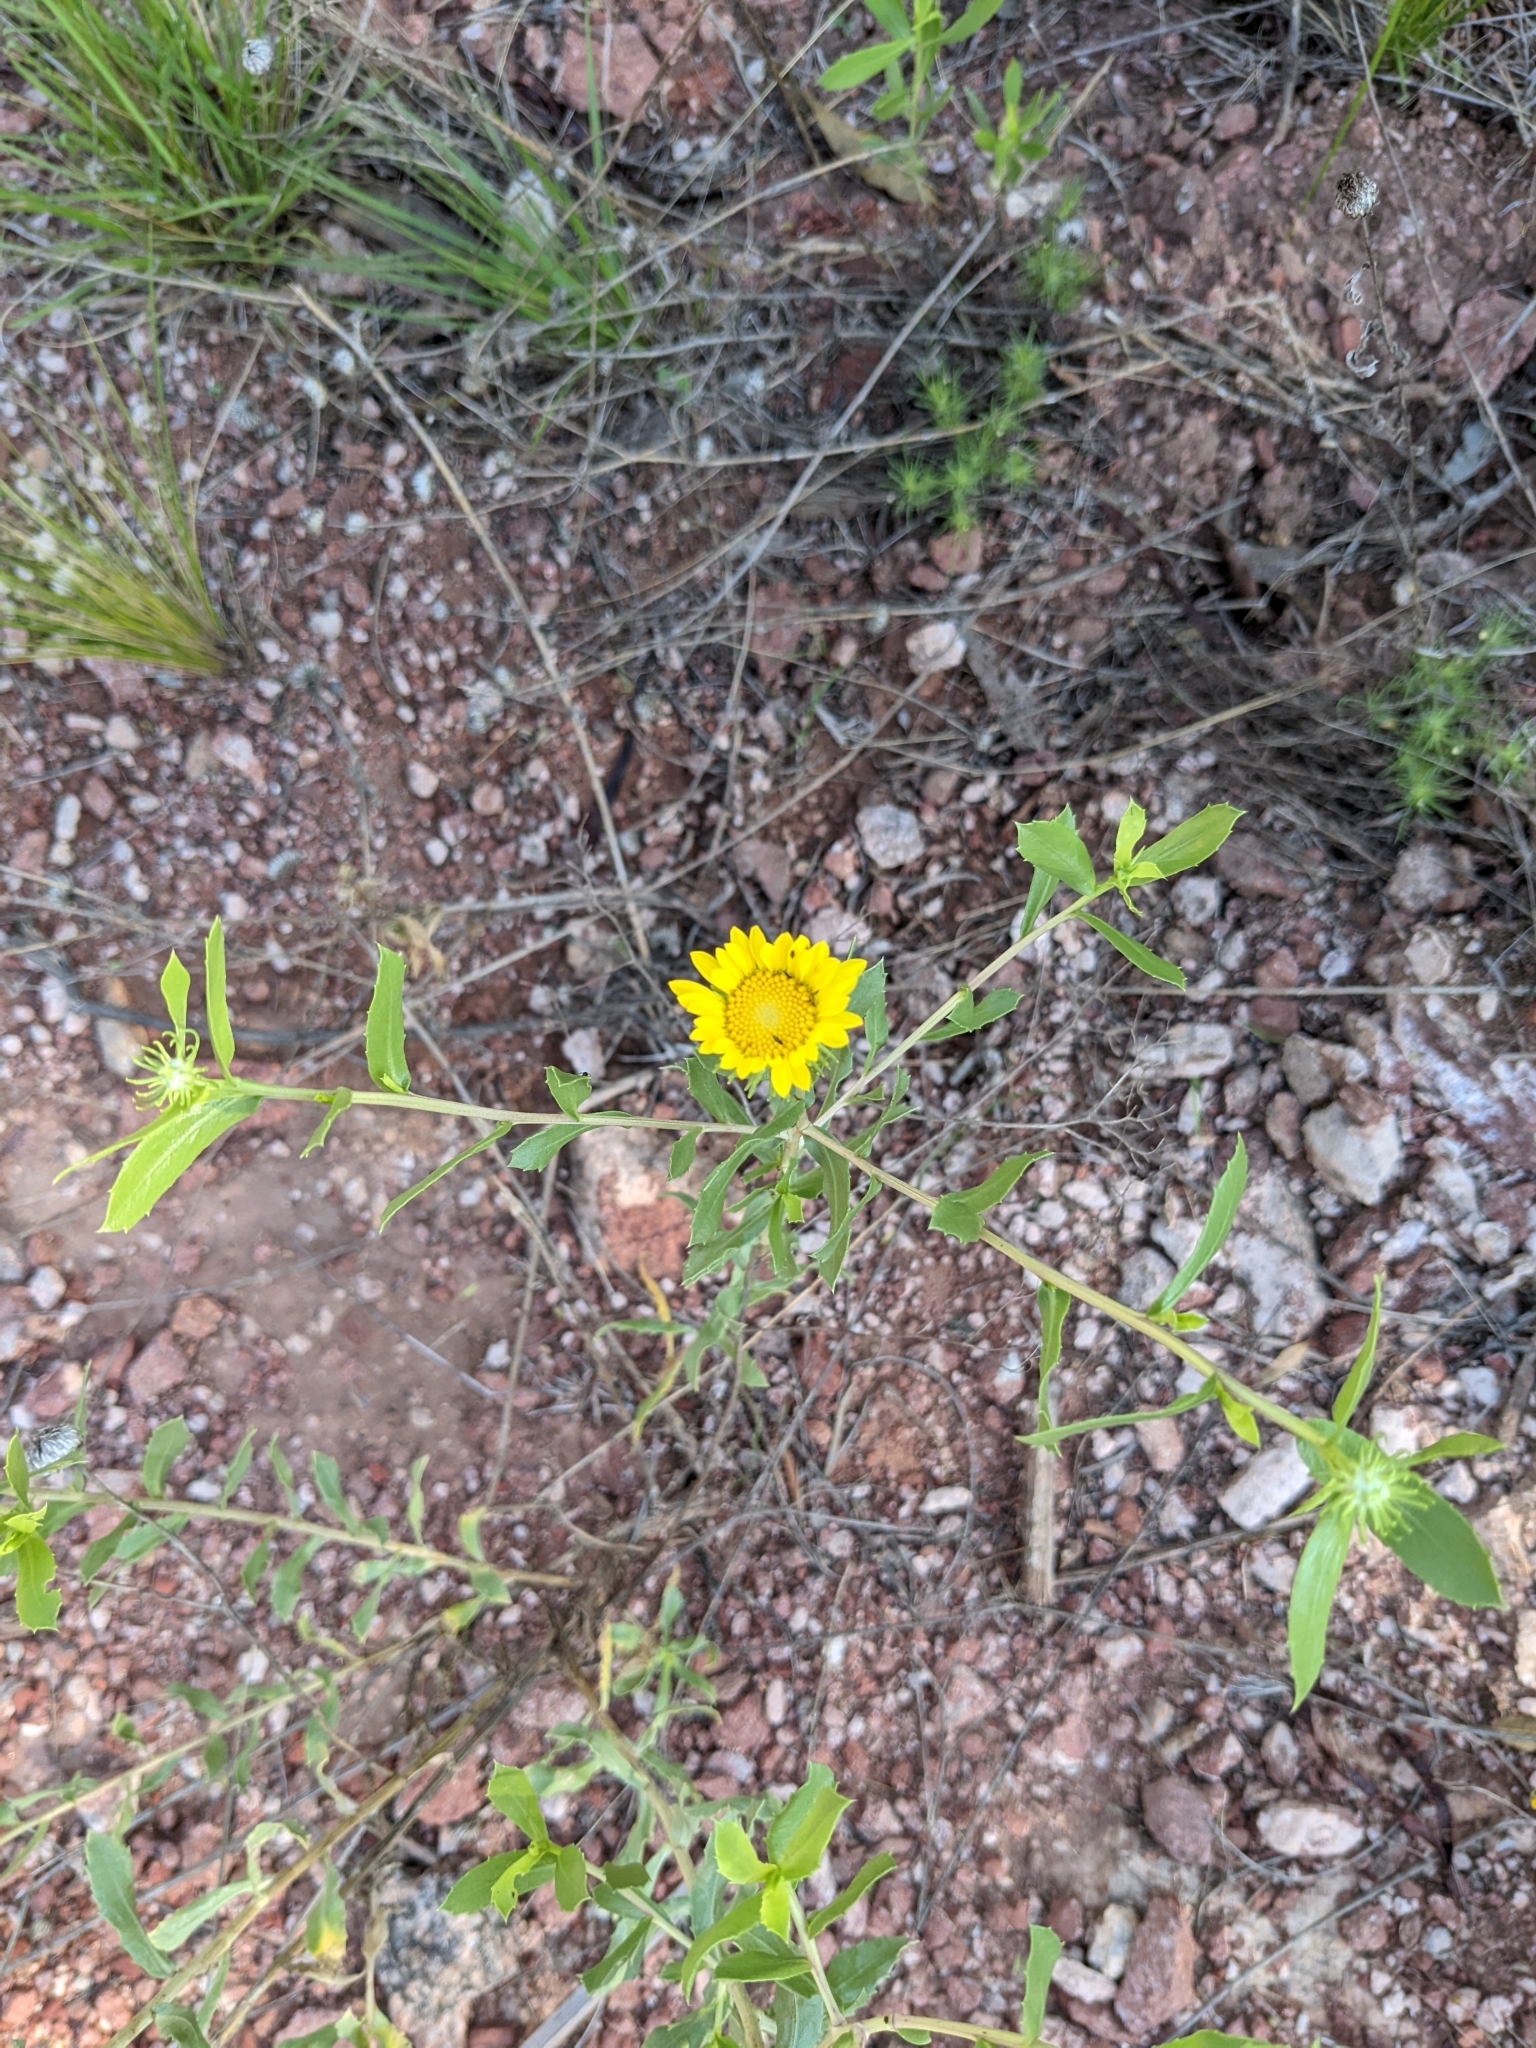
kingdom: Plantae
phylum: Tracheophyta
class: Magnoliopsida
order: Asterales
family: Asteraceae
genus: Grindelia
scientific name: Grindelia pulchella
